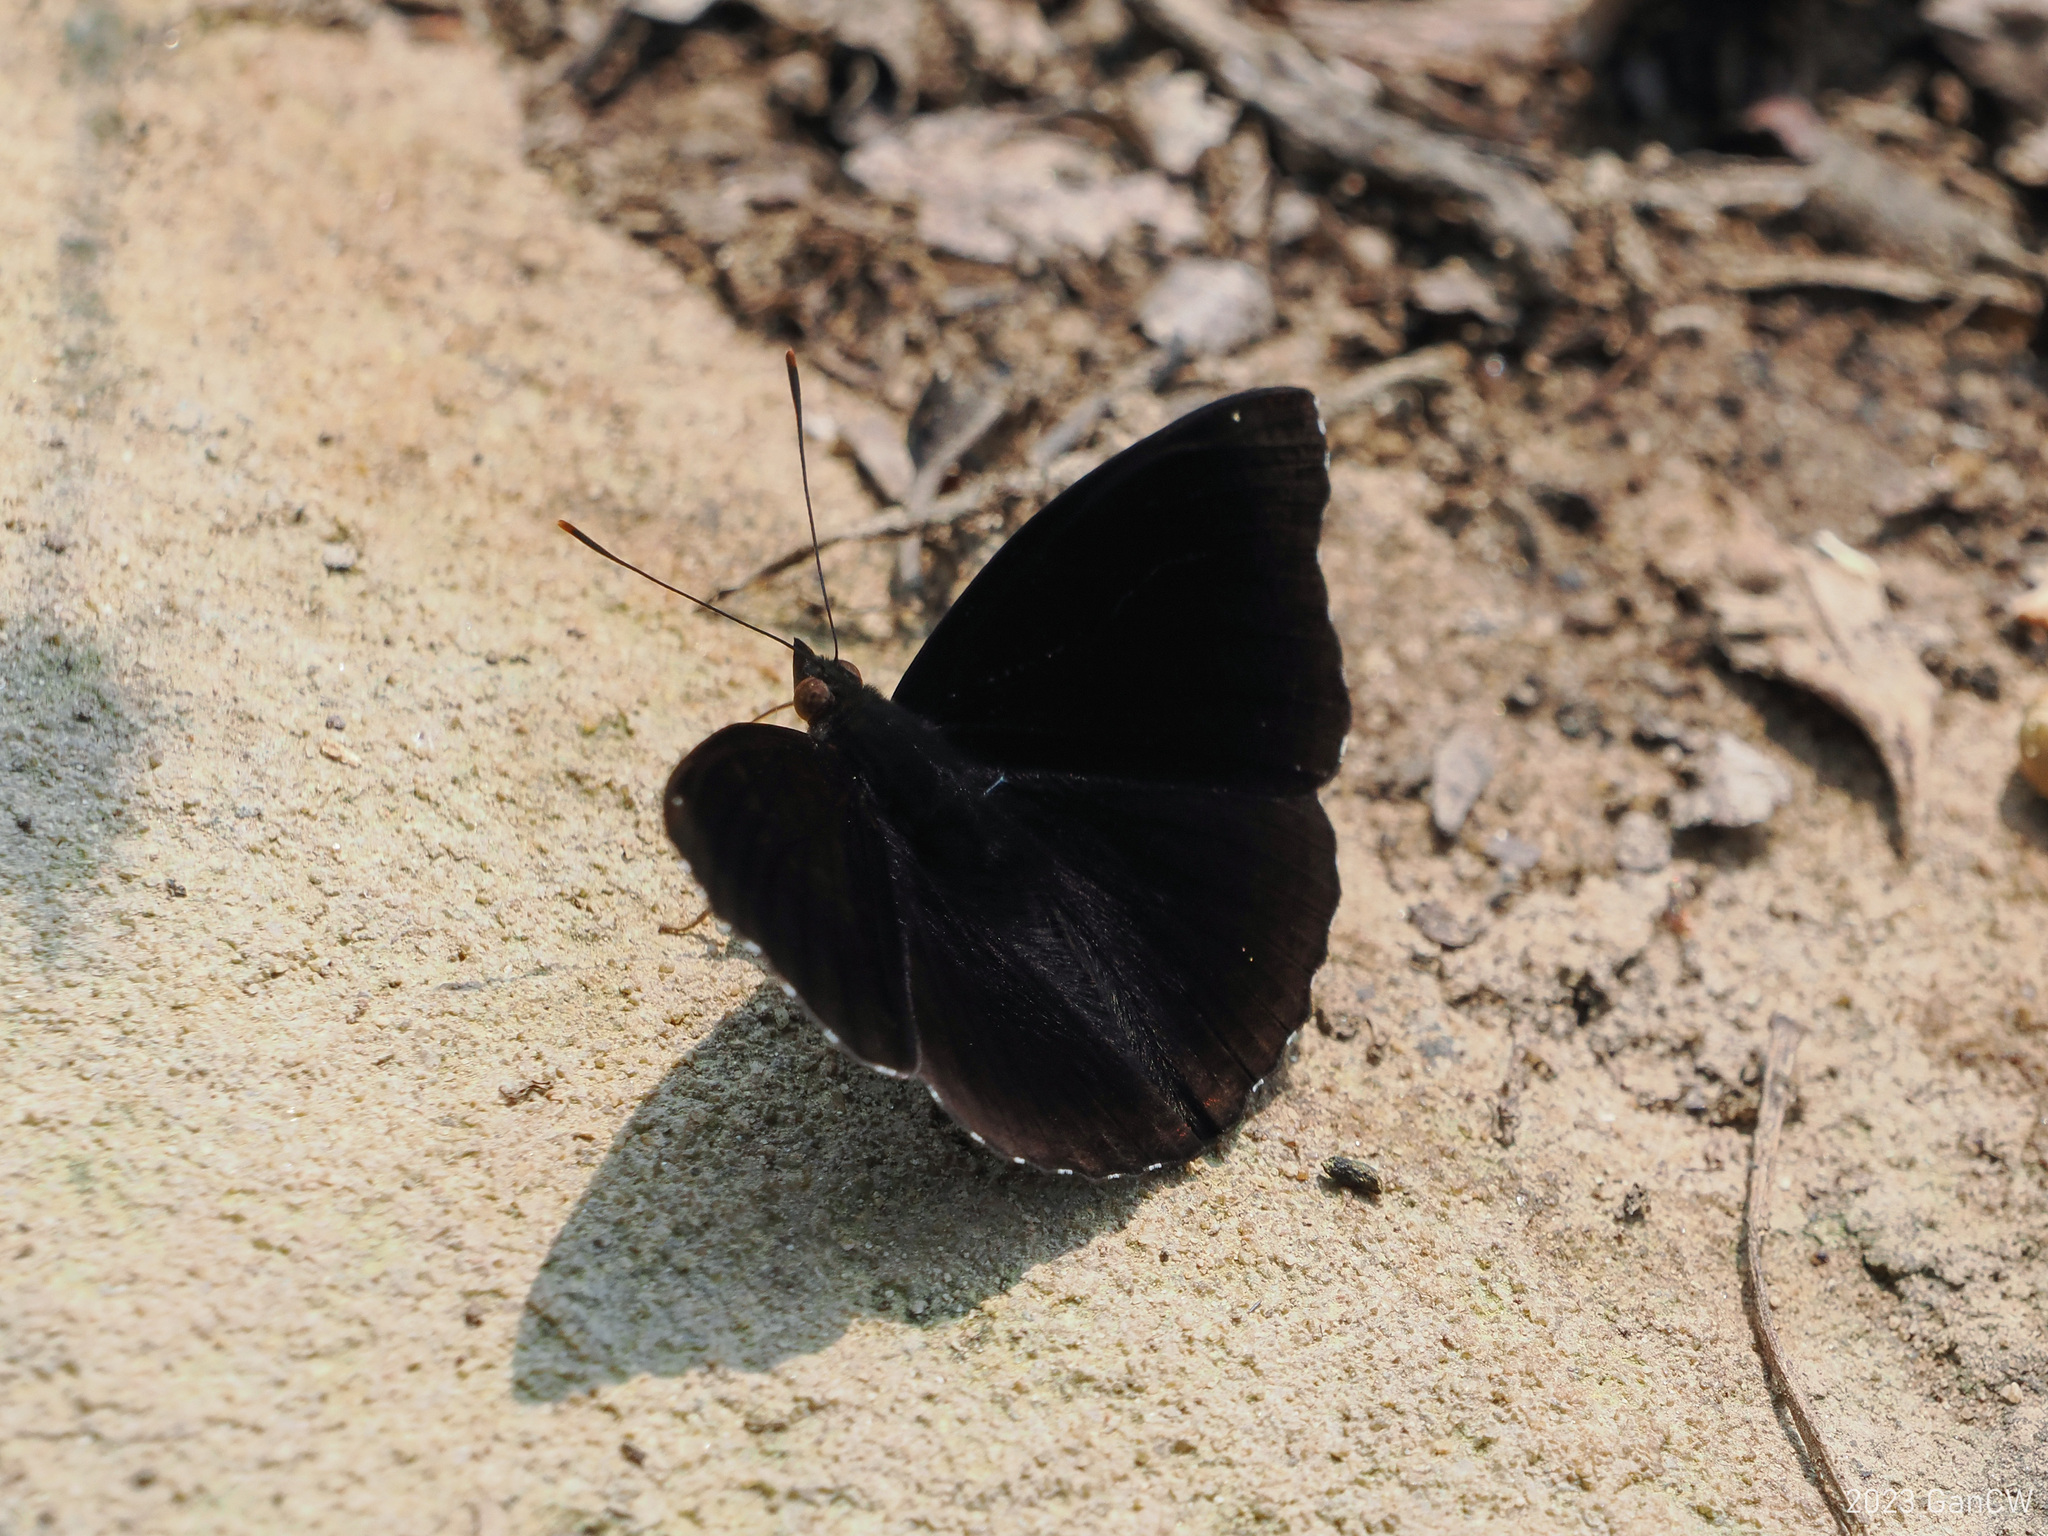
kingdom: Animalia
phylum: Arthropoda
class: Insecta
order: Lepidoptera
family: Nymphalidae
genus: Apatura
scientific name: Apatura Rohana spec
